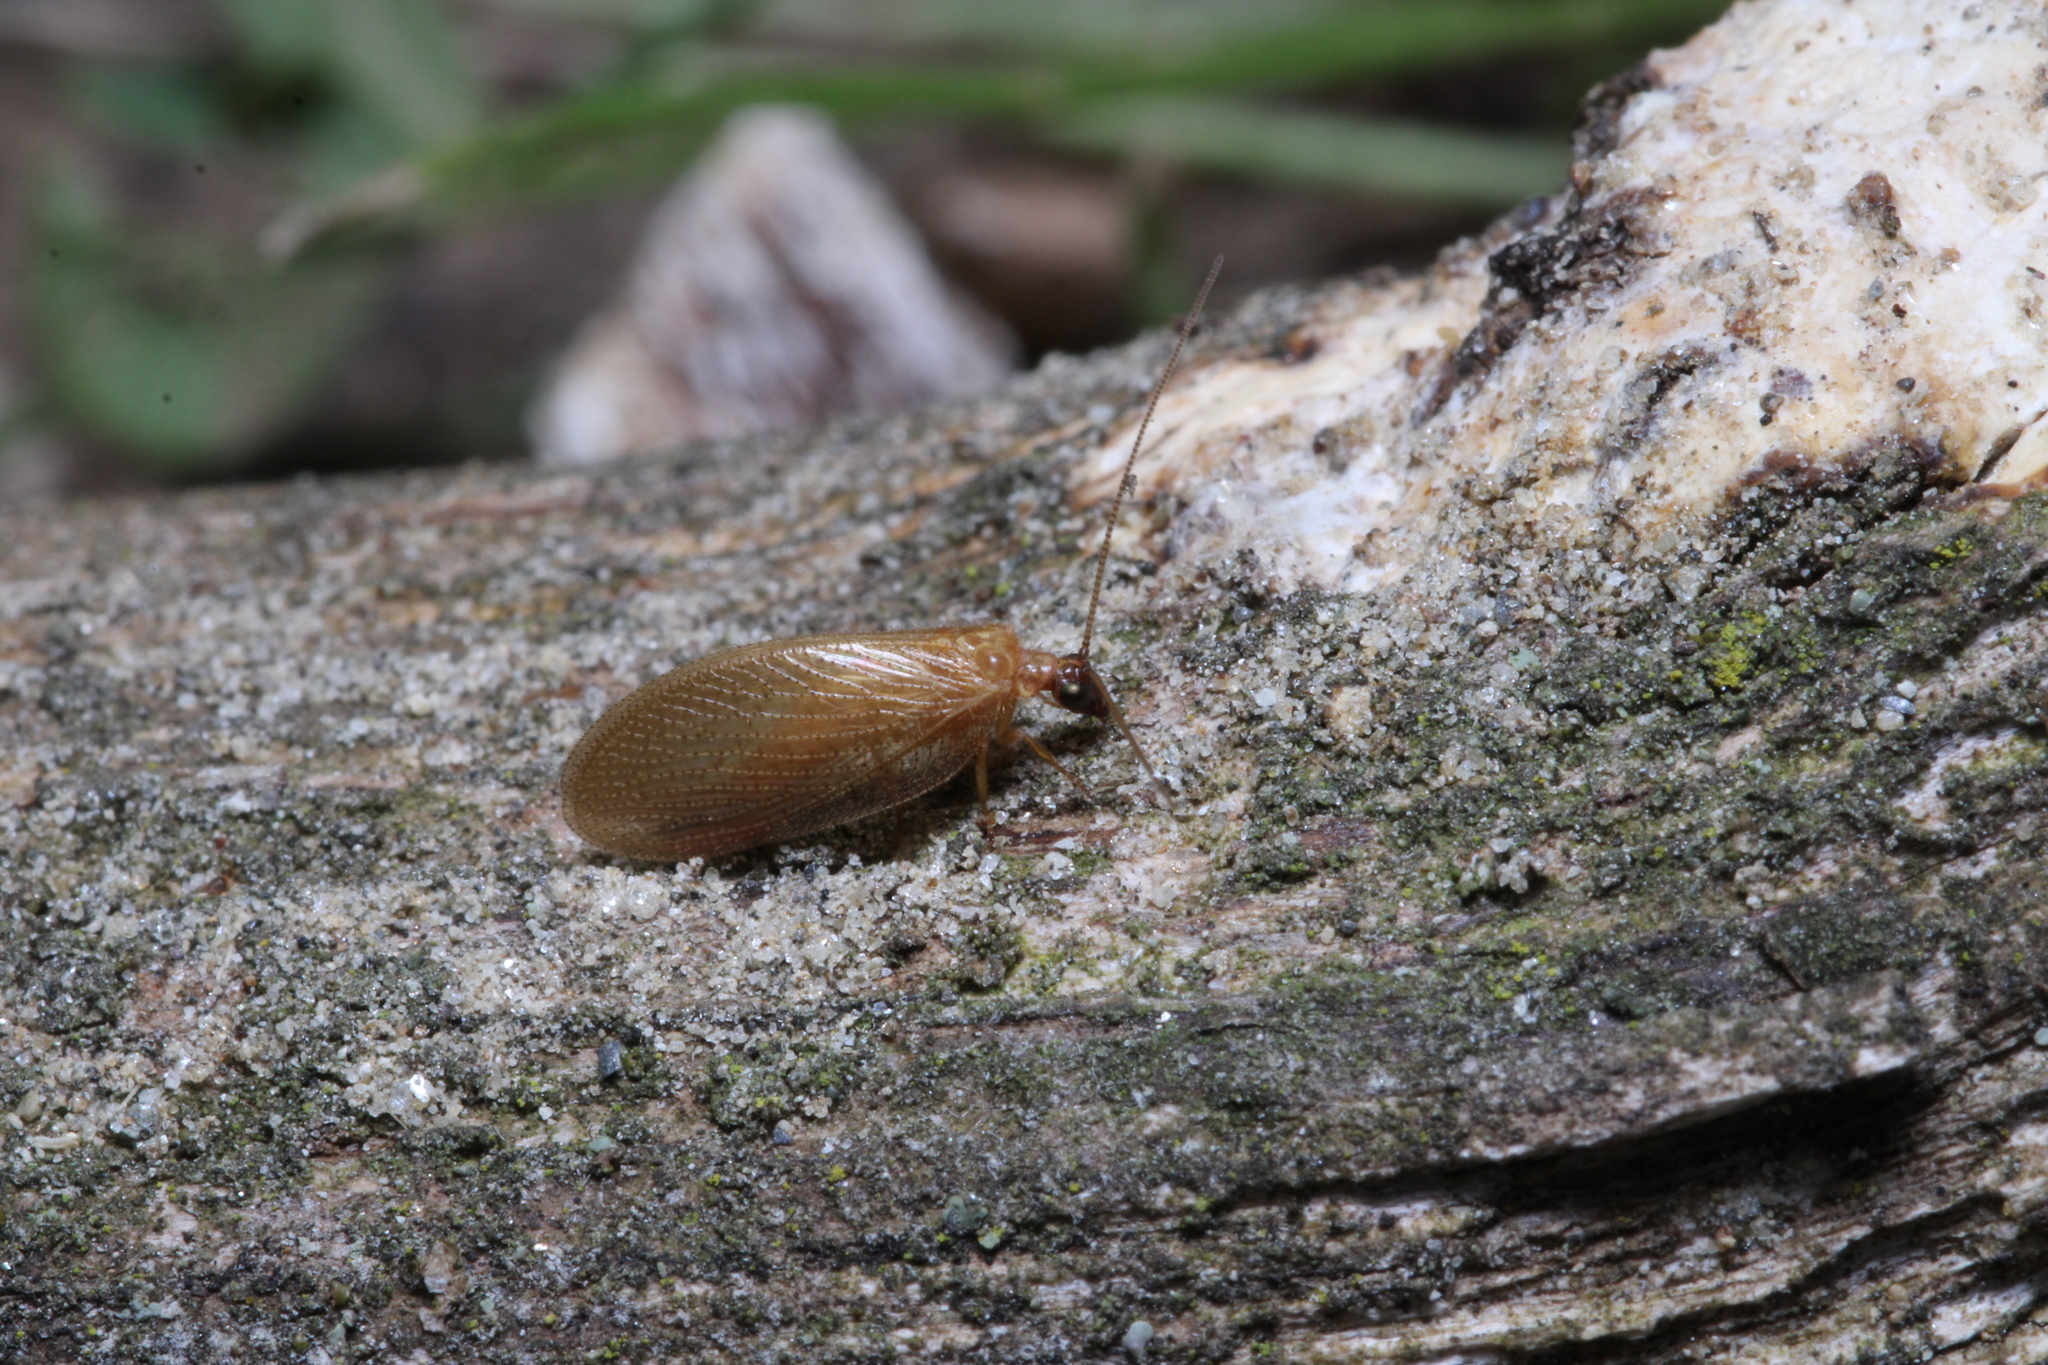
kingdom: Animalia
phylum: Arthropoda
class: Insecta
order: Neuroptera
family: Hemerobiidae
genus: Hemerobius
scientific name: Hemerobius nitidulus
